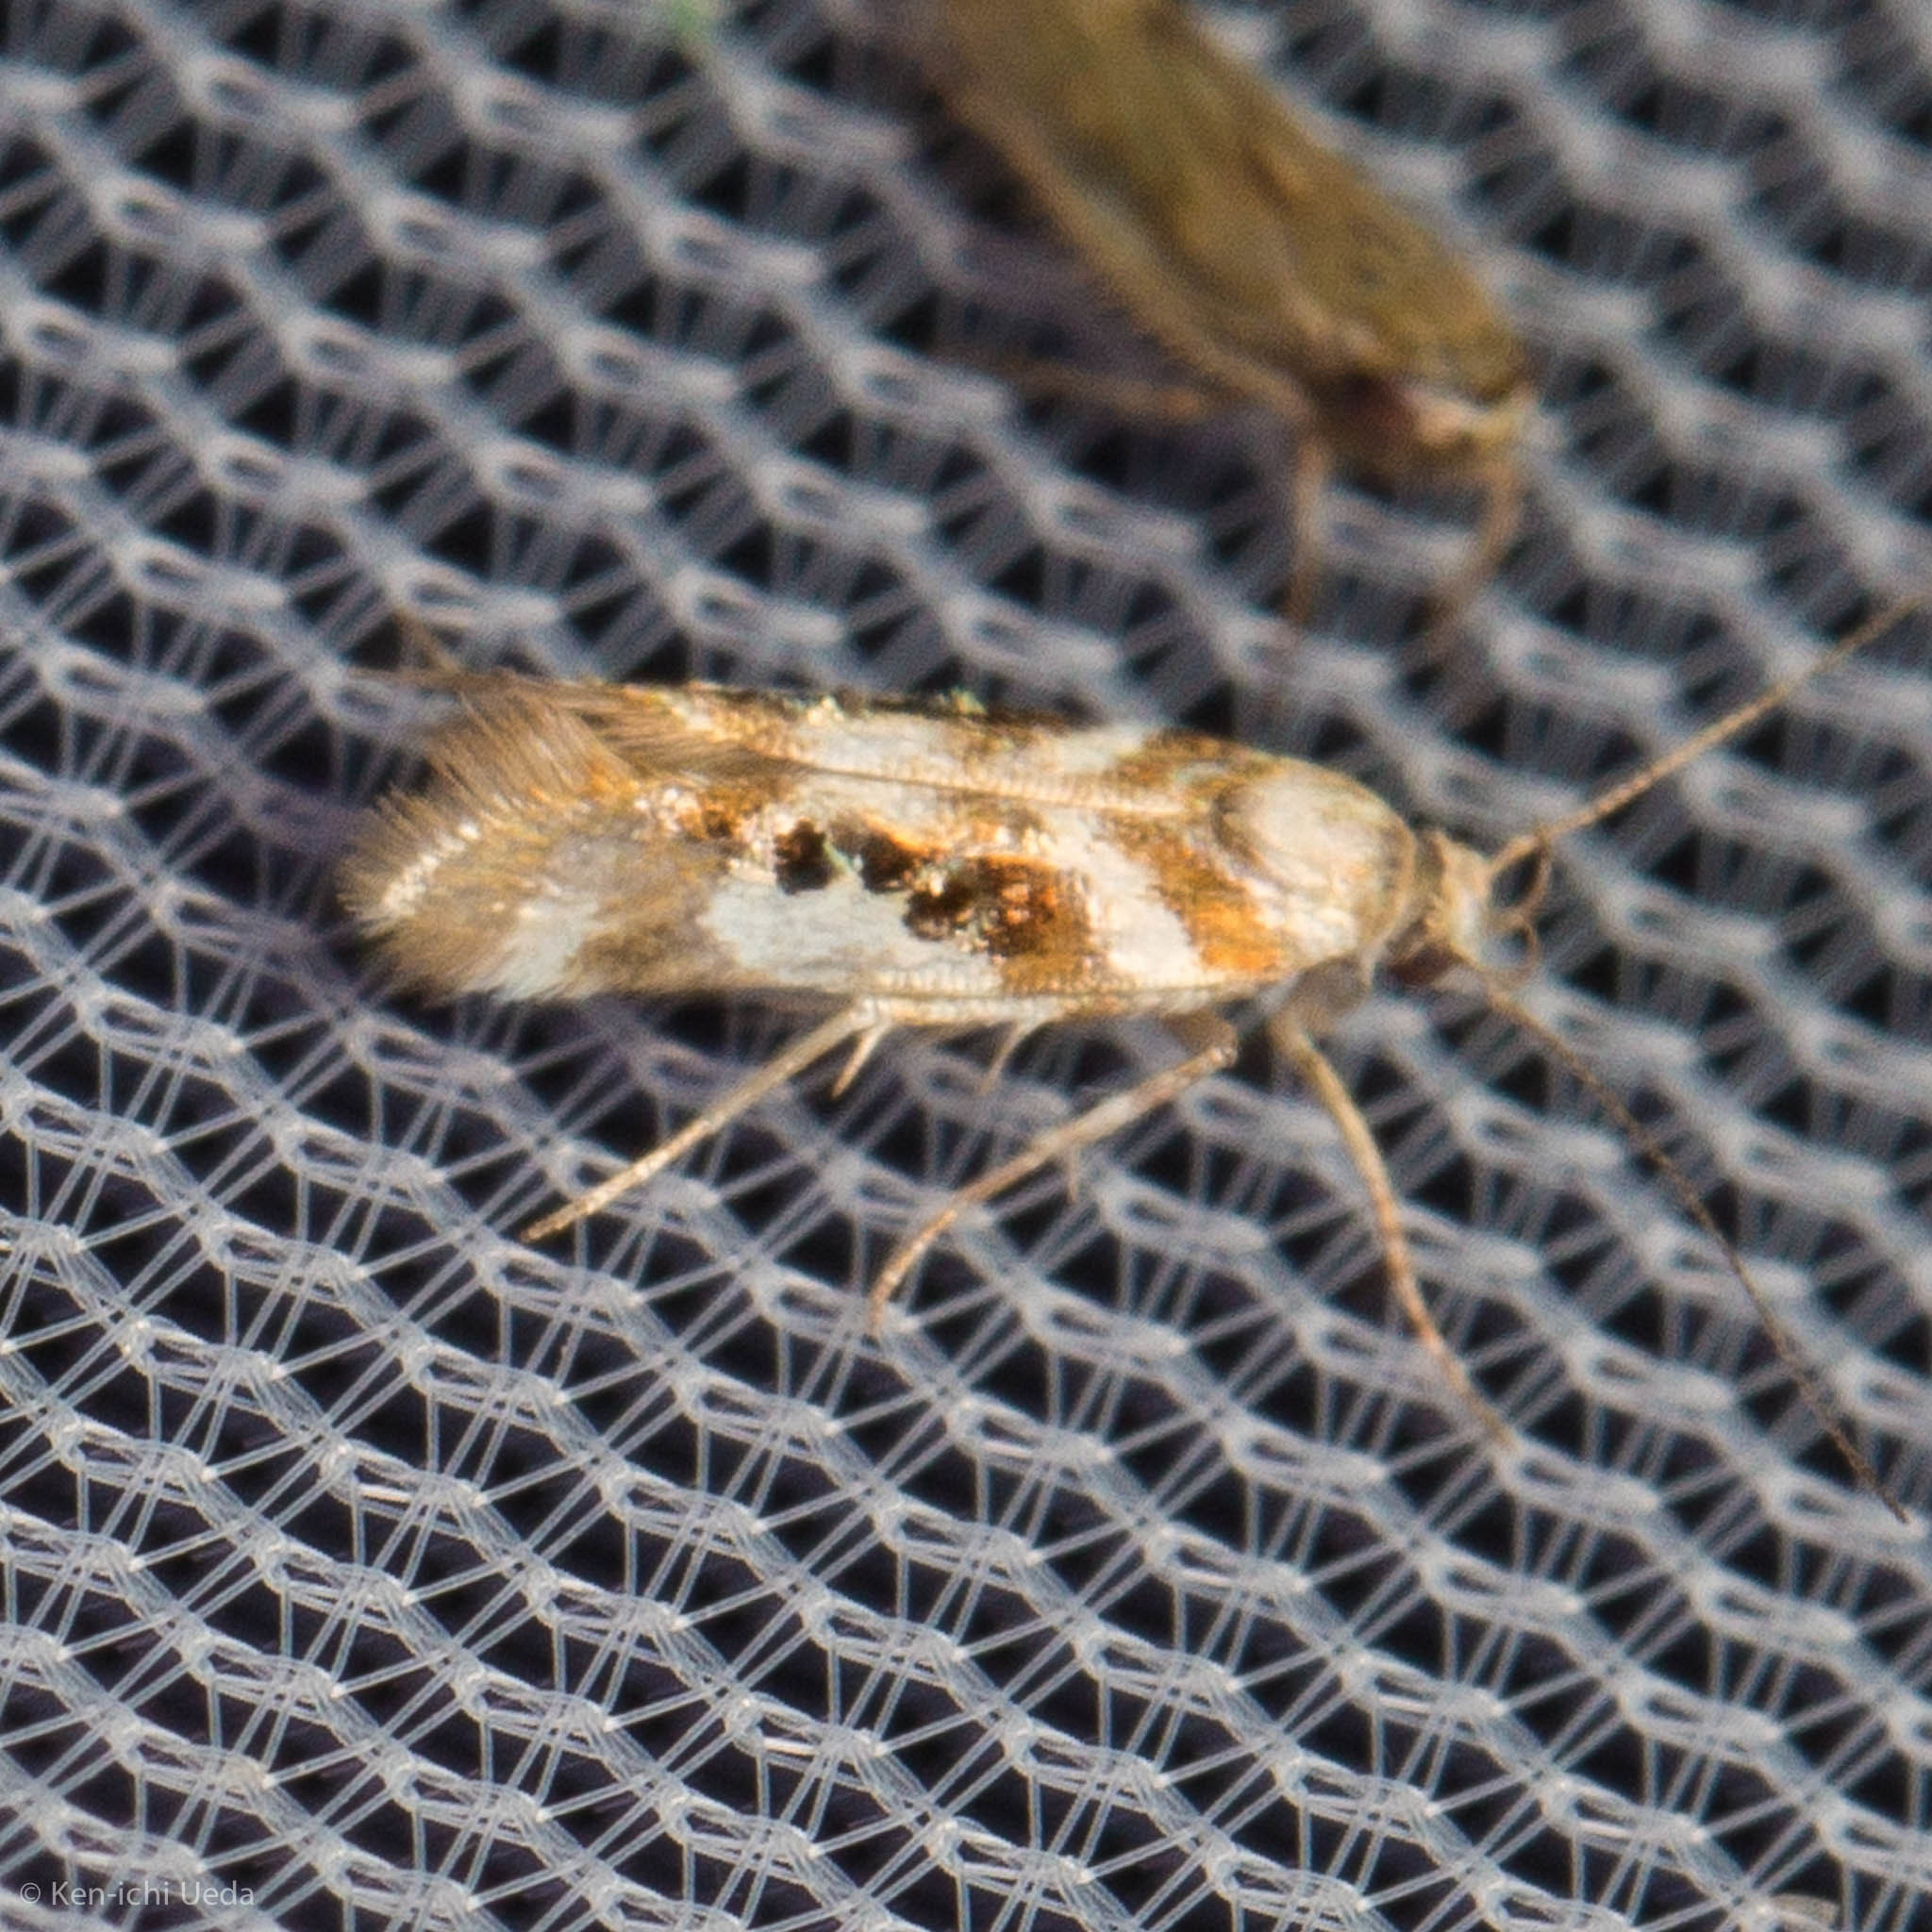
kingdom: Animalia
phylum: Arthropoda
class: Insecta
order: Lepidoptera
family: Gelechiidae
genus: Aristotelia
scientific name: Aristotelia elegantella
